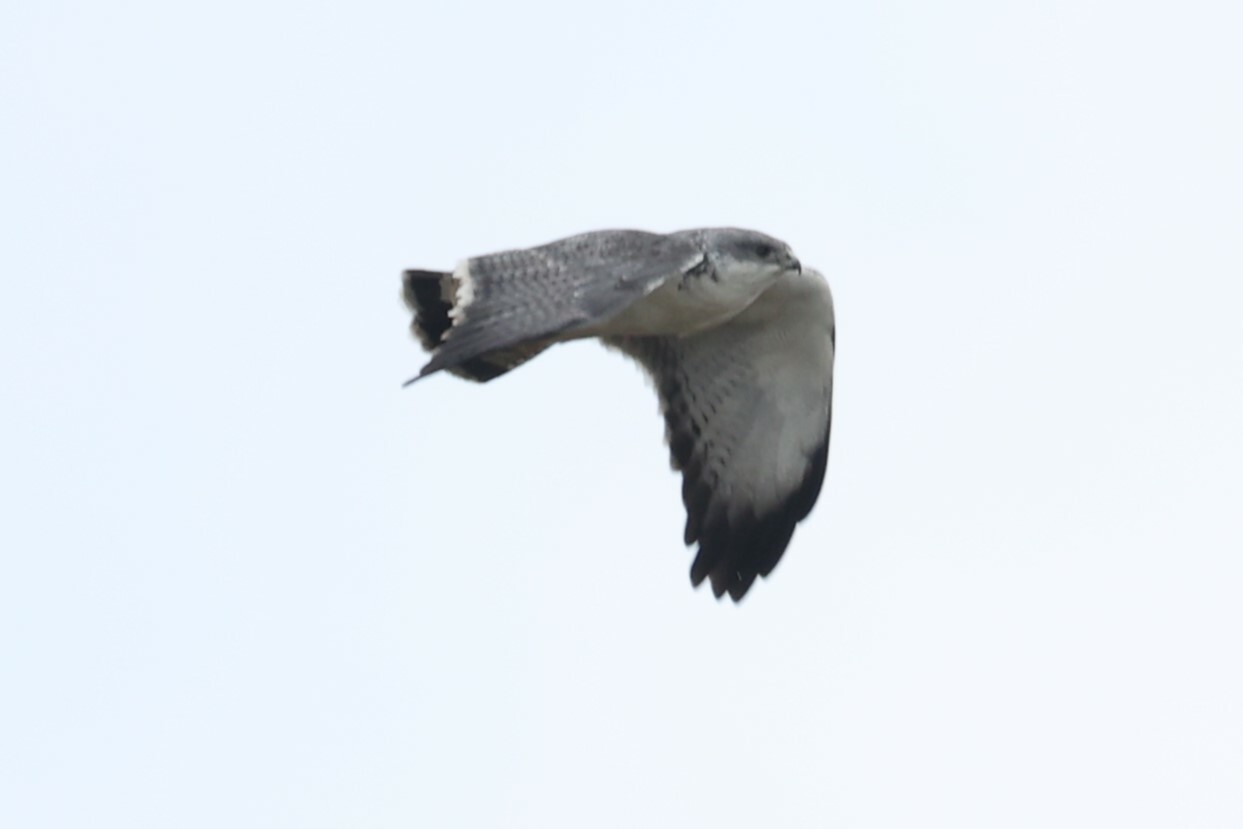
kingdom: Animalia
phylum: Chordata
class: Aves
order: Accipitriformes
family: Accipitridae
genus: Buteo
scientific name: Buteo polyosoma
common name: Variable hawk
